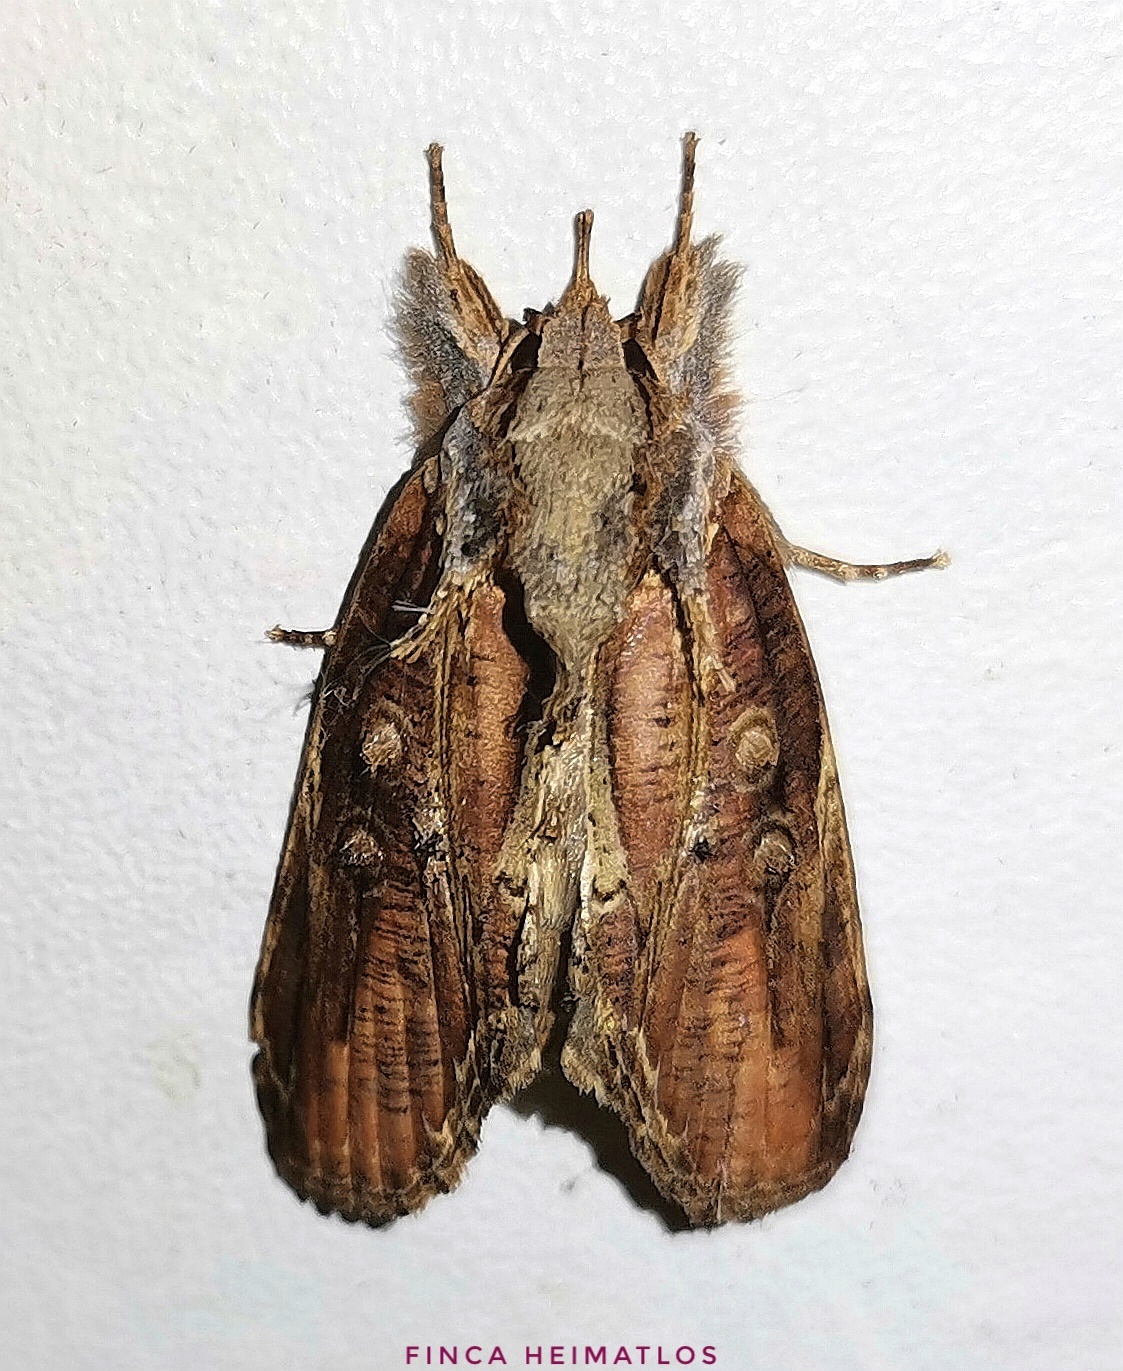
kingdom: Animalia
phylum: Arthropoda
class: Insecta
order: Lepidoptera
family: Nolidae
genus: Iscadia
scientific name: Iscadia purpurascens
